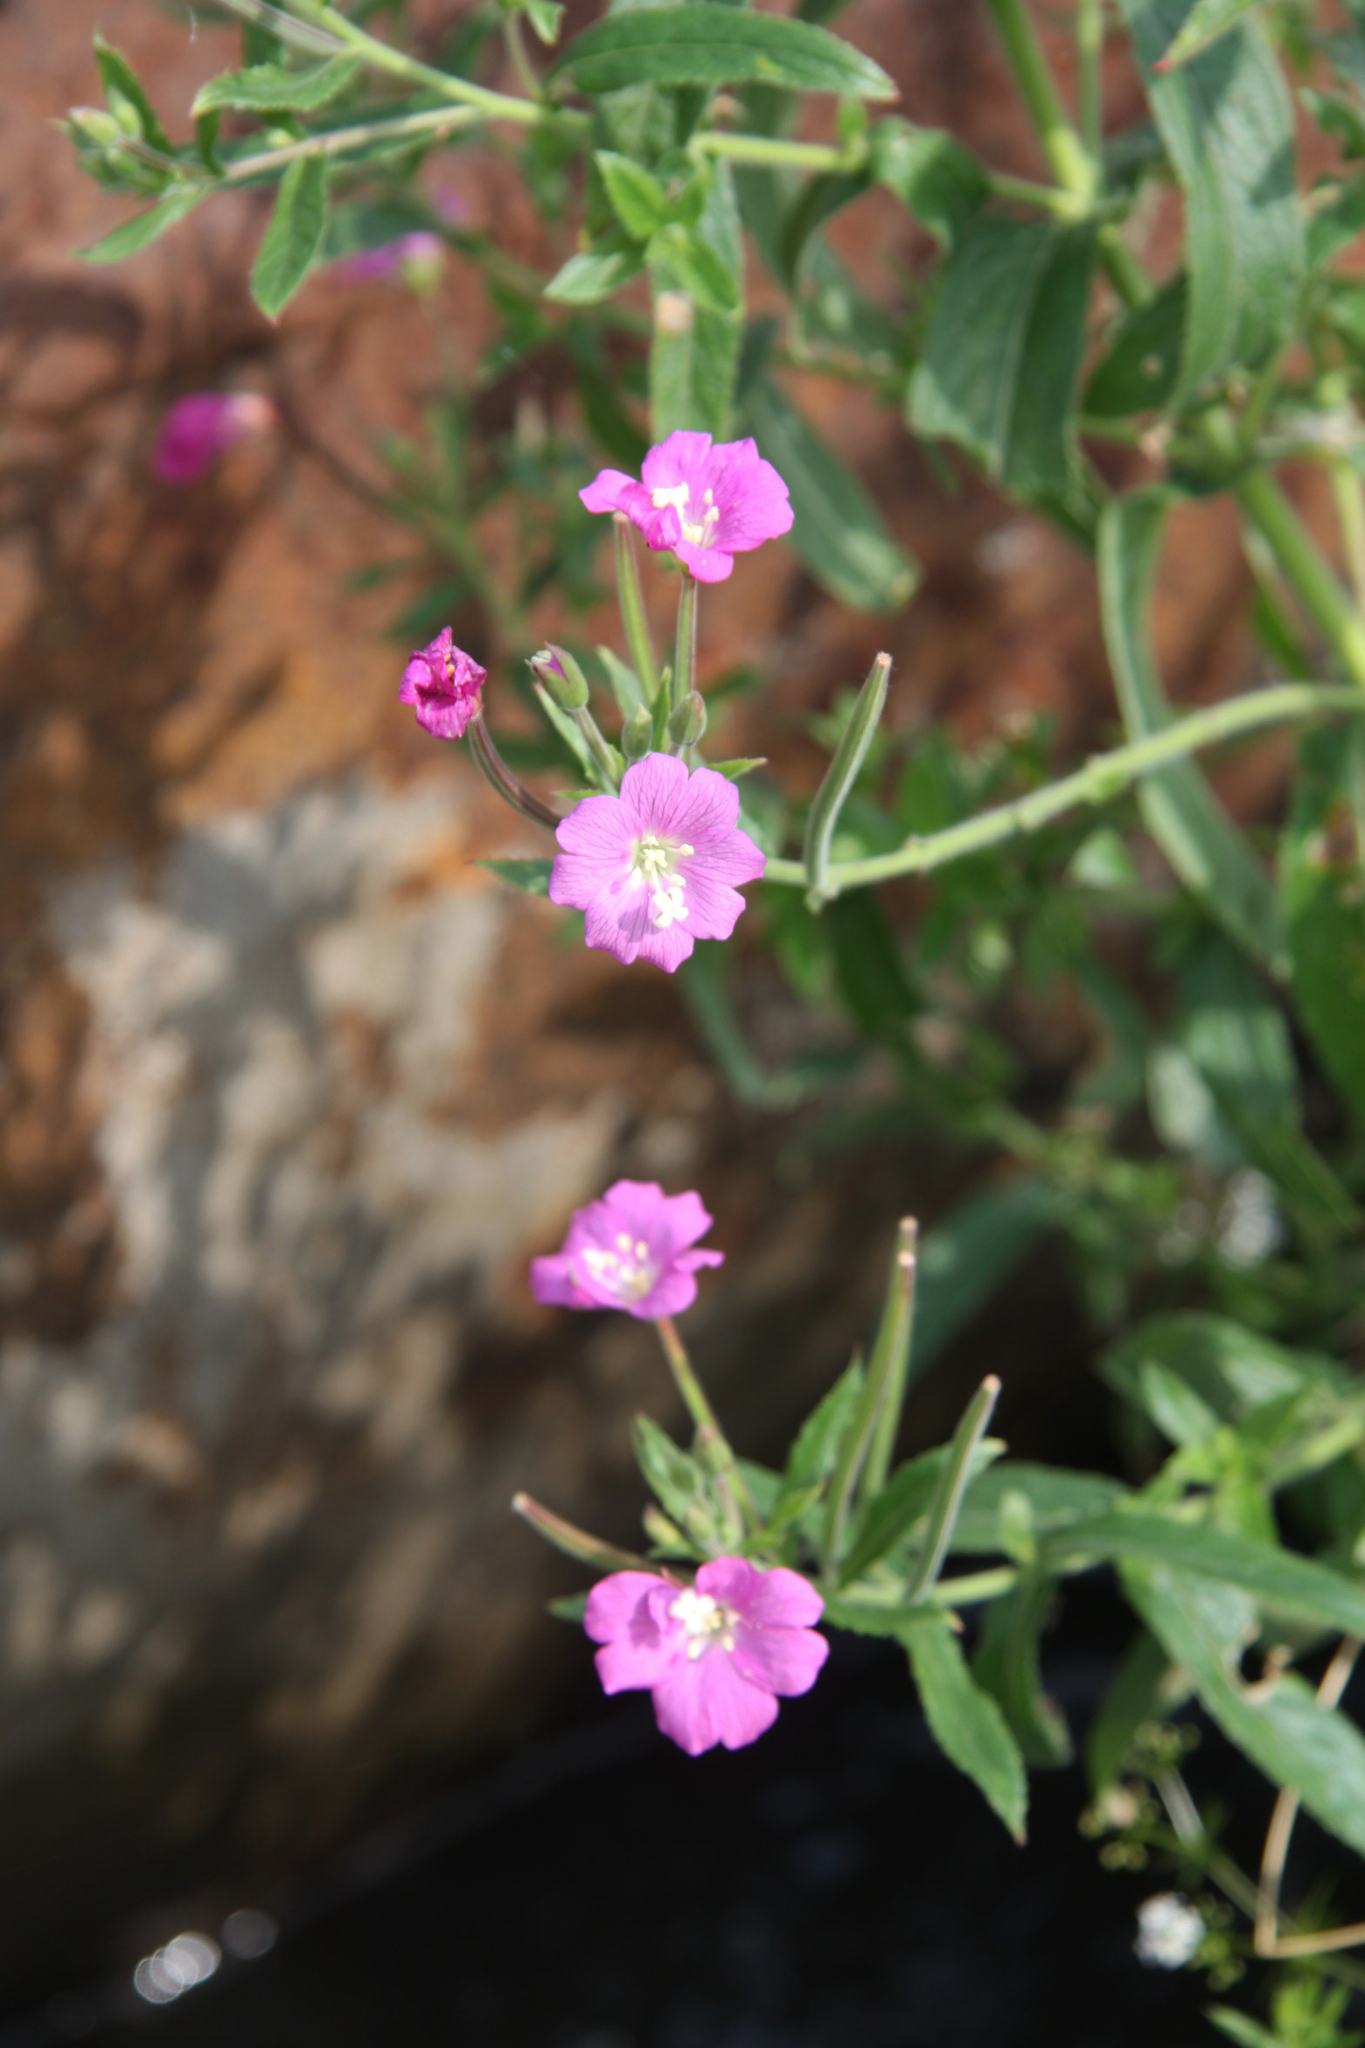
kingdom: Plantae
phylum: Tracheophyta
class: Magnoliopsida
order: Myrtales
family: Onagraceae
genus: Epilobium
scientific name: Epilobium hirsutum
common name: Great willowherb
